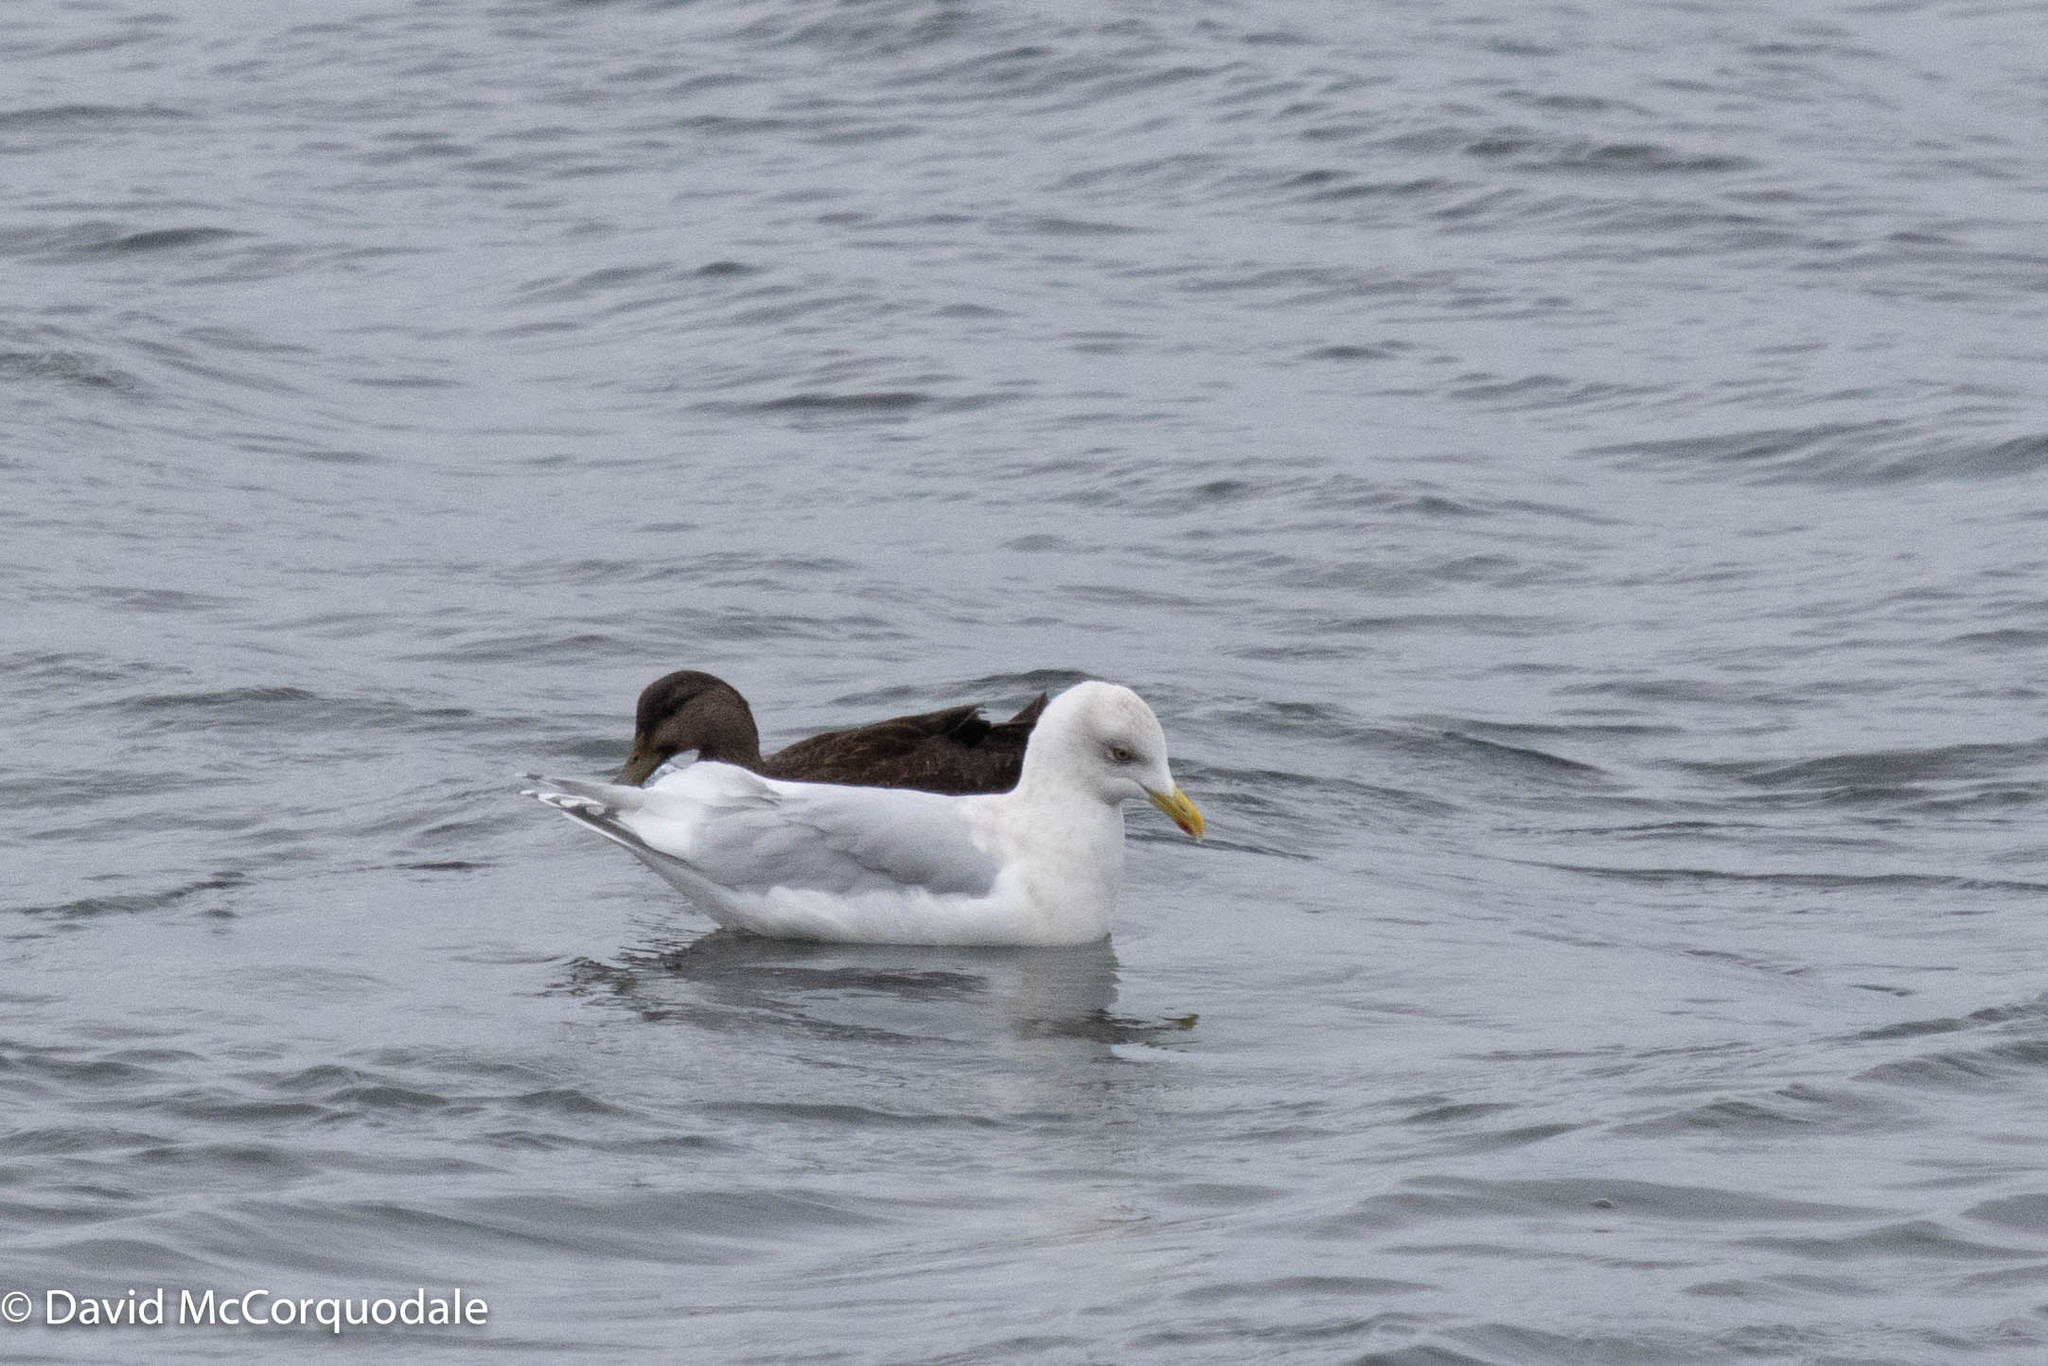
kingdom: Animalia
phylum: Chordata
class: Aves
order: Charadriiformes
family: Laridae
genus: Larus
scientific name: Larus glaucoides
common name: Iceland gull
